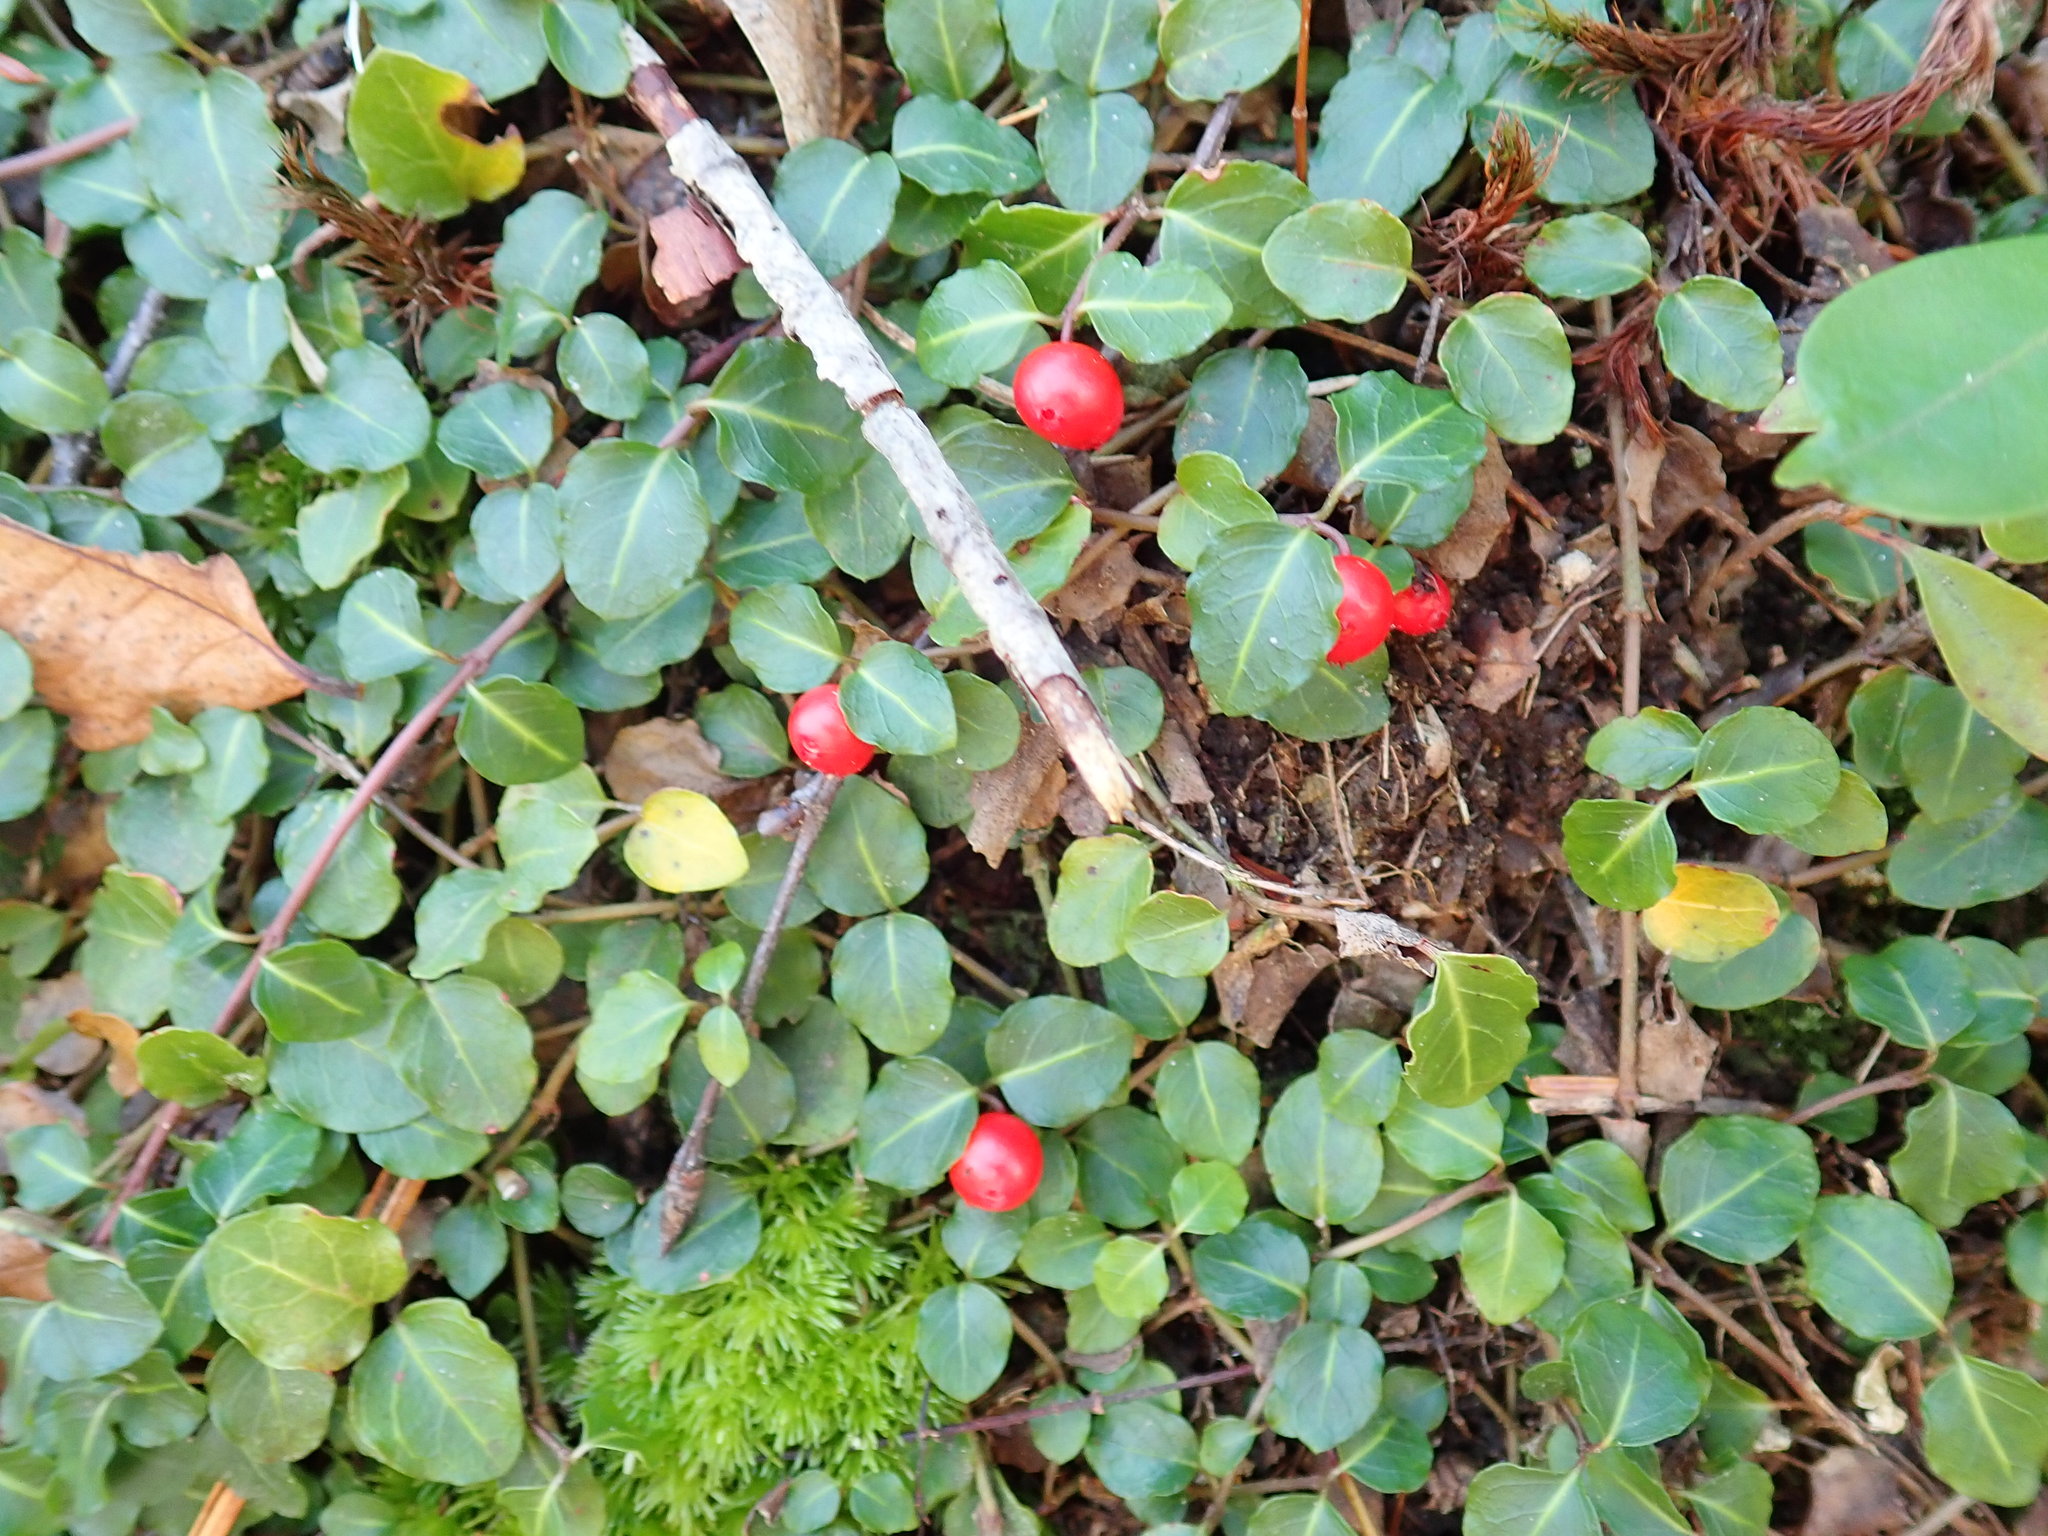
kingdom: Plantae
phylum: Tracheophyta
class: Magnoliopsida
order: Gentianales
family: Rubiaceae
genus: Mitchella
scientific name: Mitchella repens
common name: Partridge-berry
